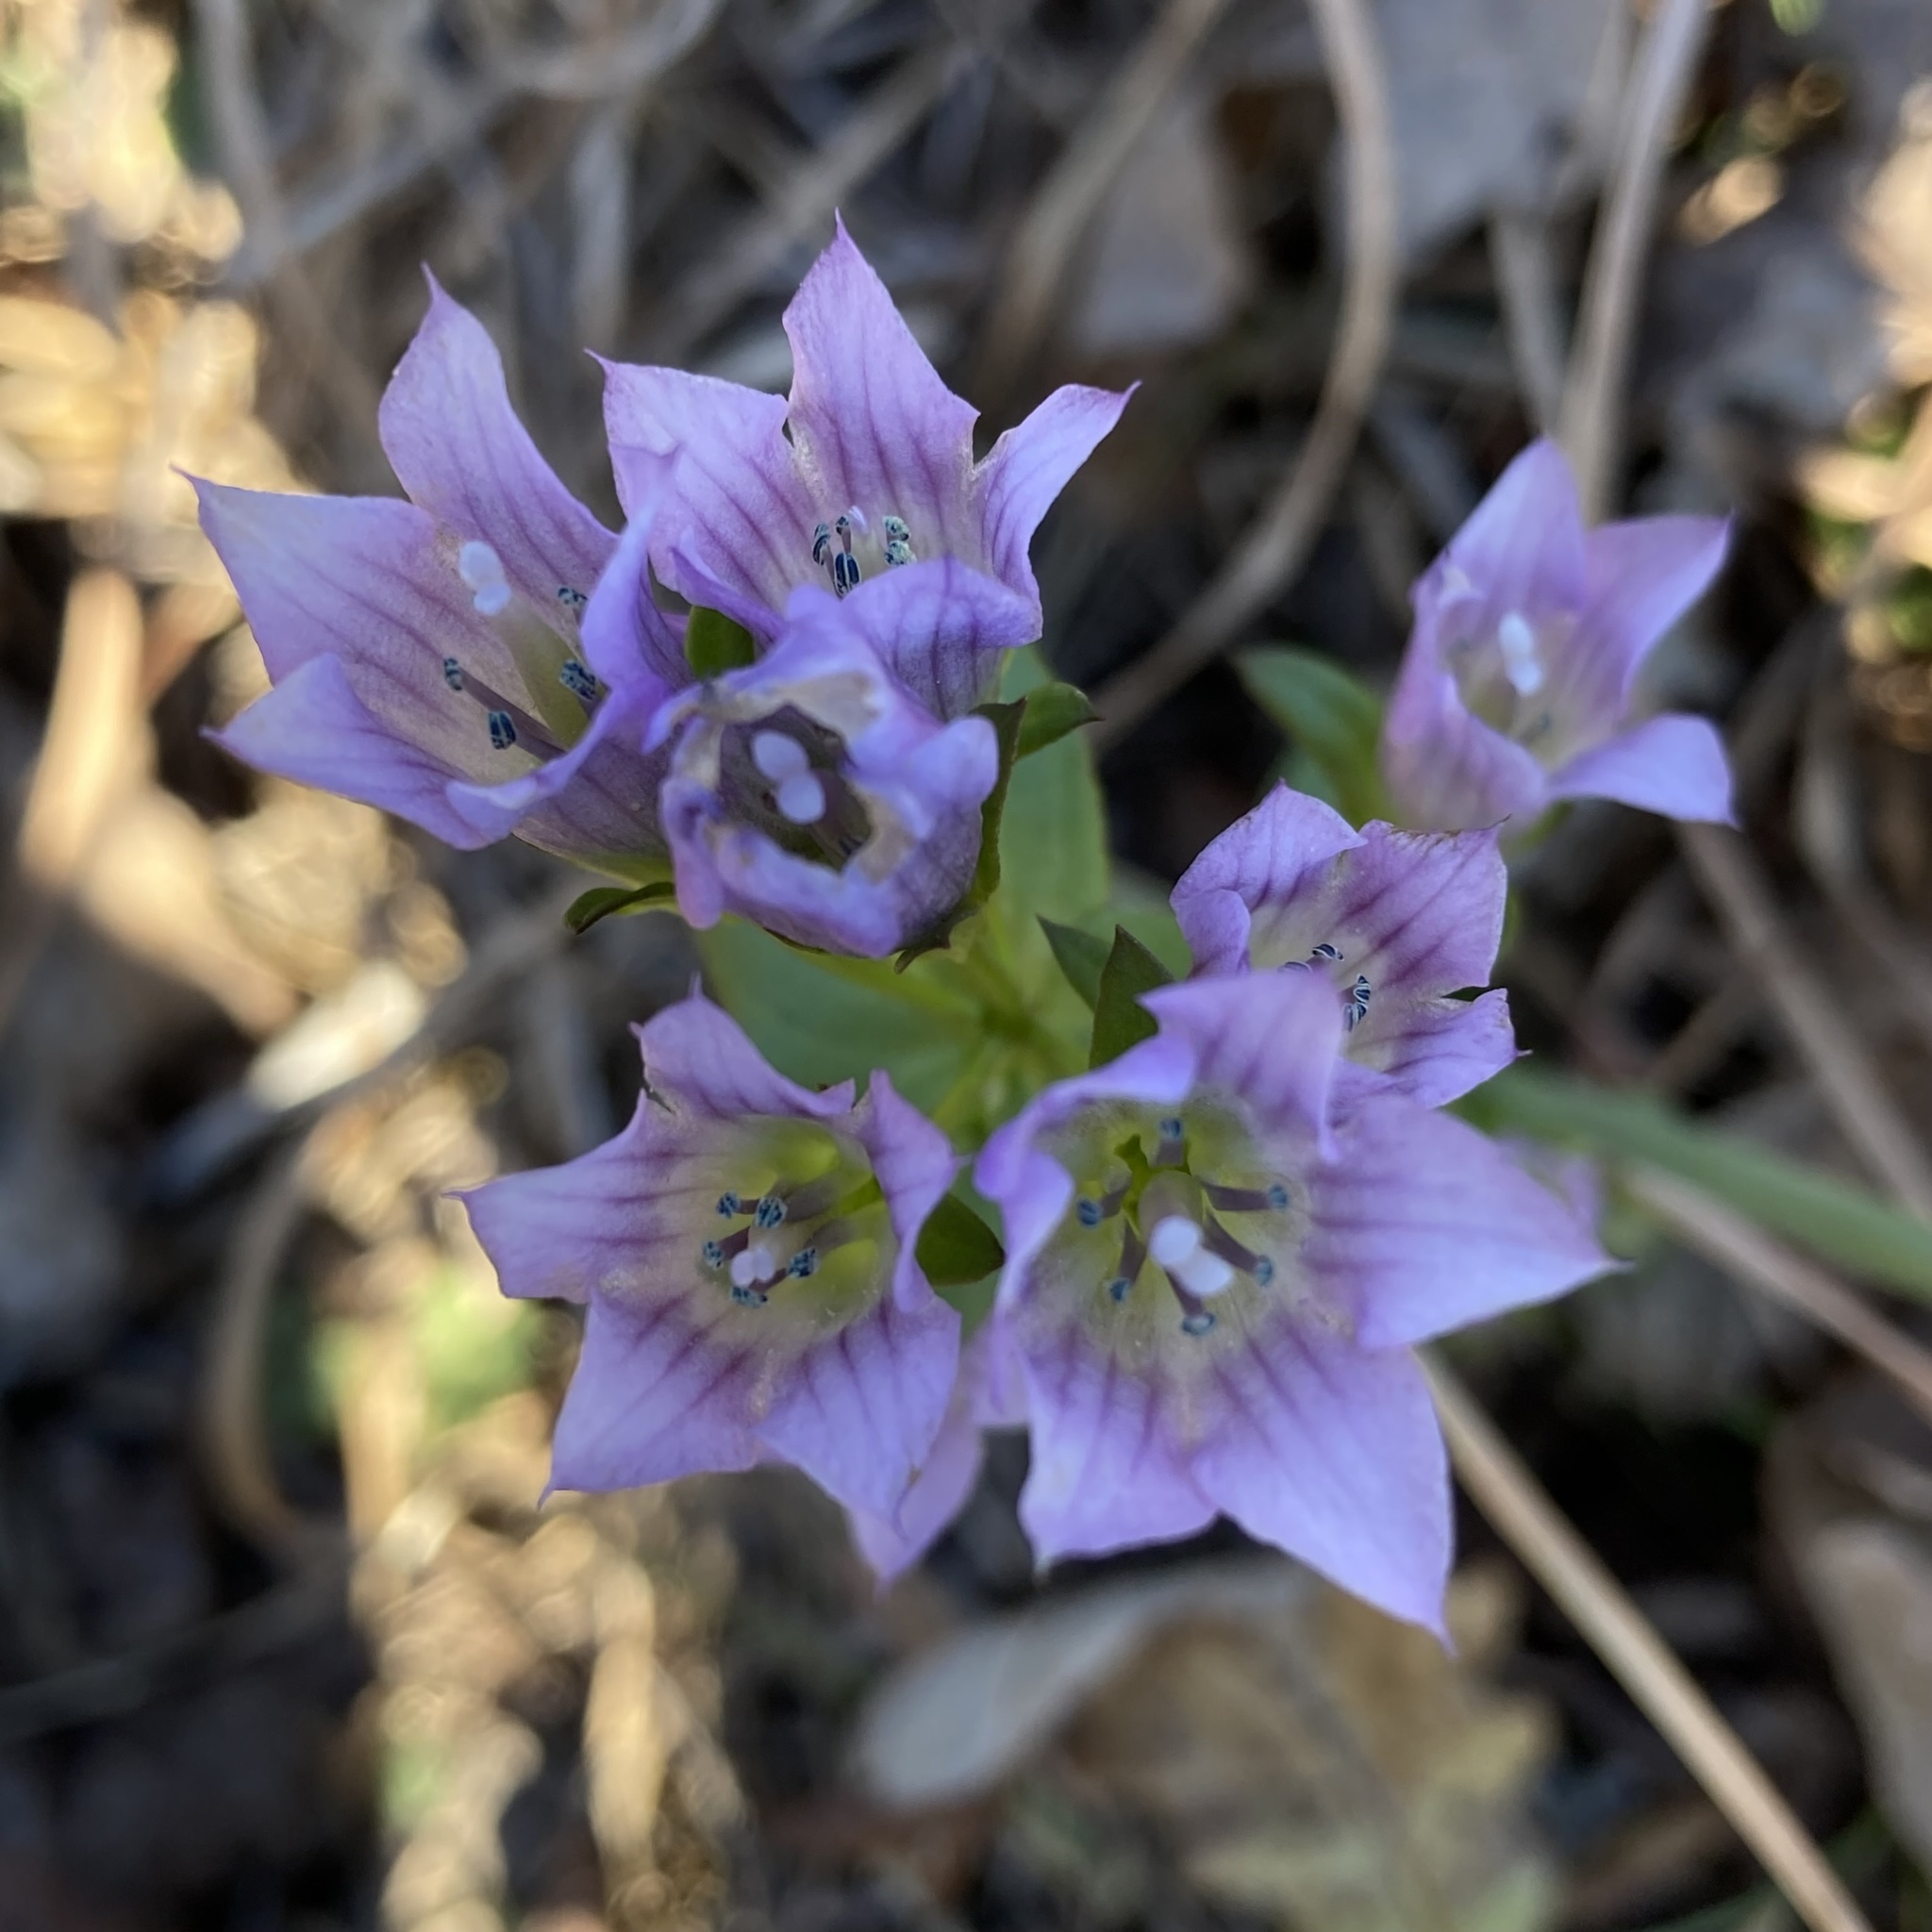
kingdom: Plantae
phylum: Tracheophyta
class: Magnoliopsida
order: Gentianales
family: Gentianaceae
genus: Gentianella
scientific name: Gentianella quinquefolia
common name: Agueweed
